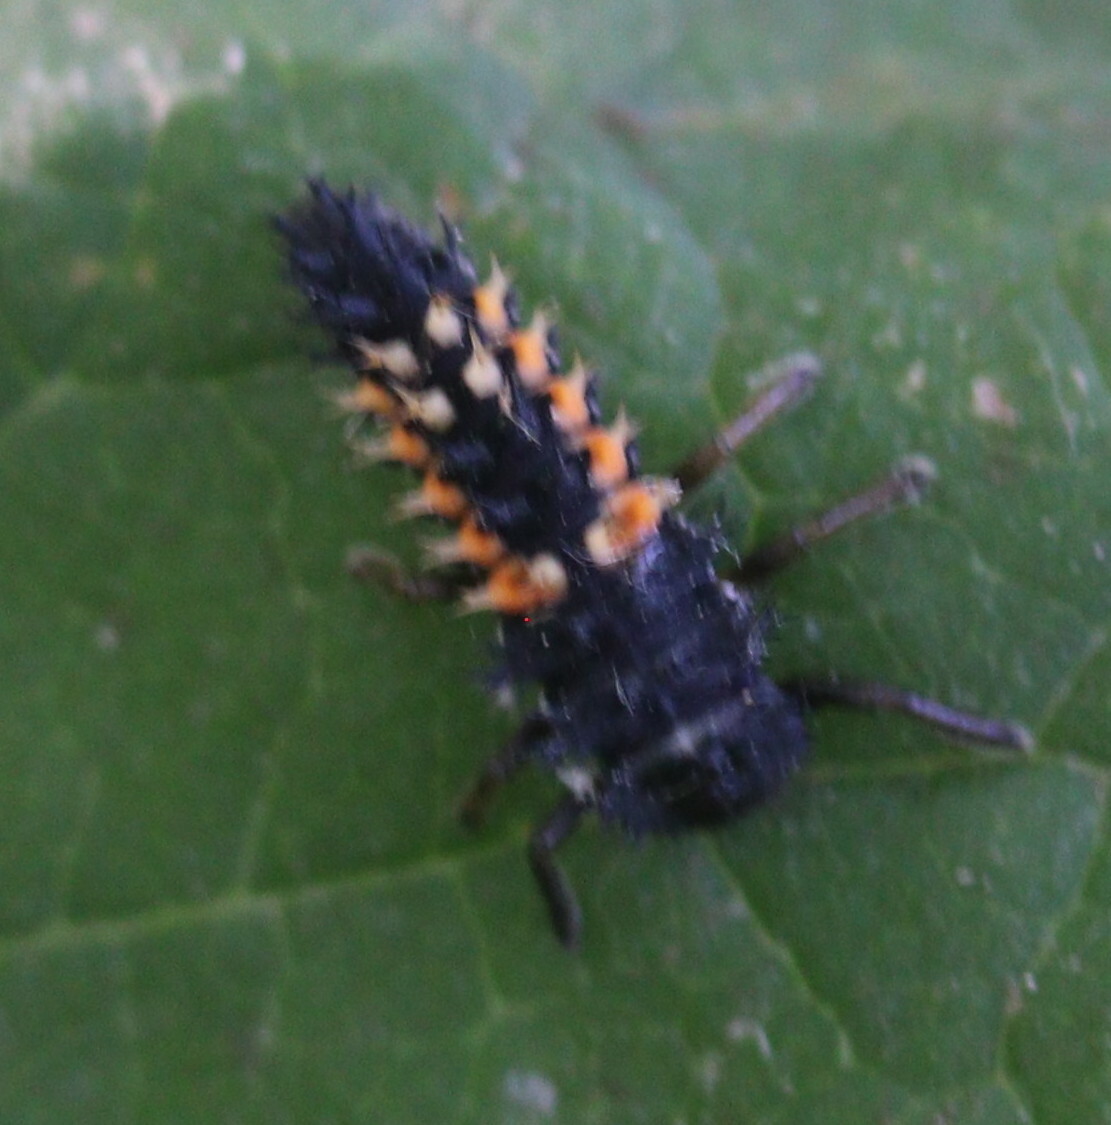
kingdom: Animalia
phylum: Arthropoda
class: Insecta
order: Coleoptera
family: Coccinellidae
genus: Harmonia
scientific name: Harmonia axyridis
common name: Harlequin ladybird
